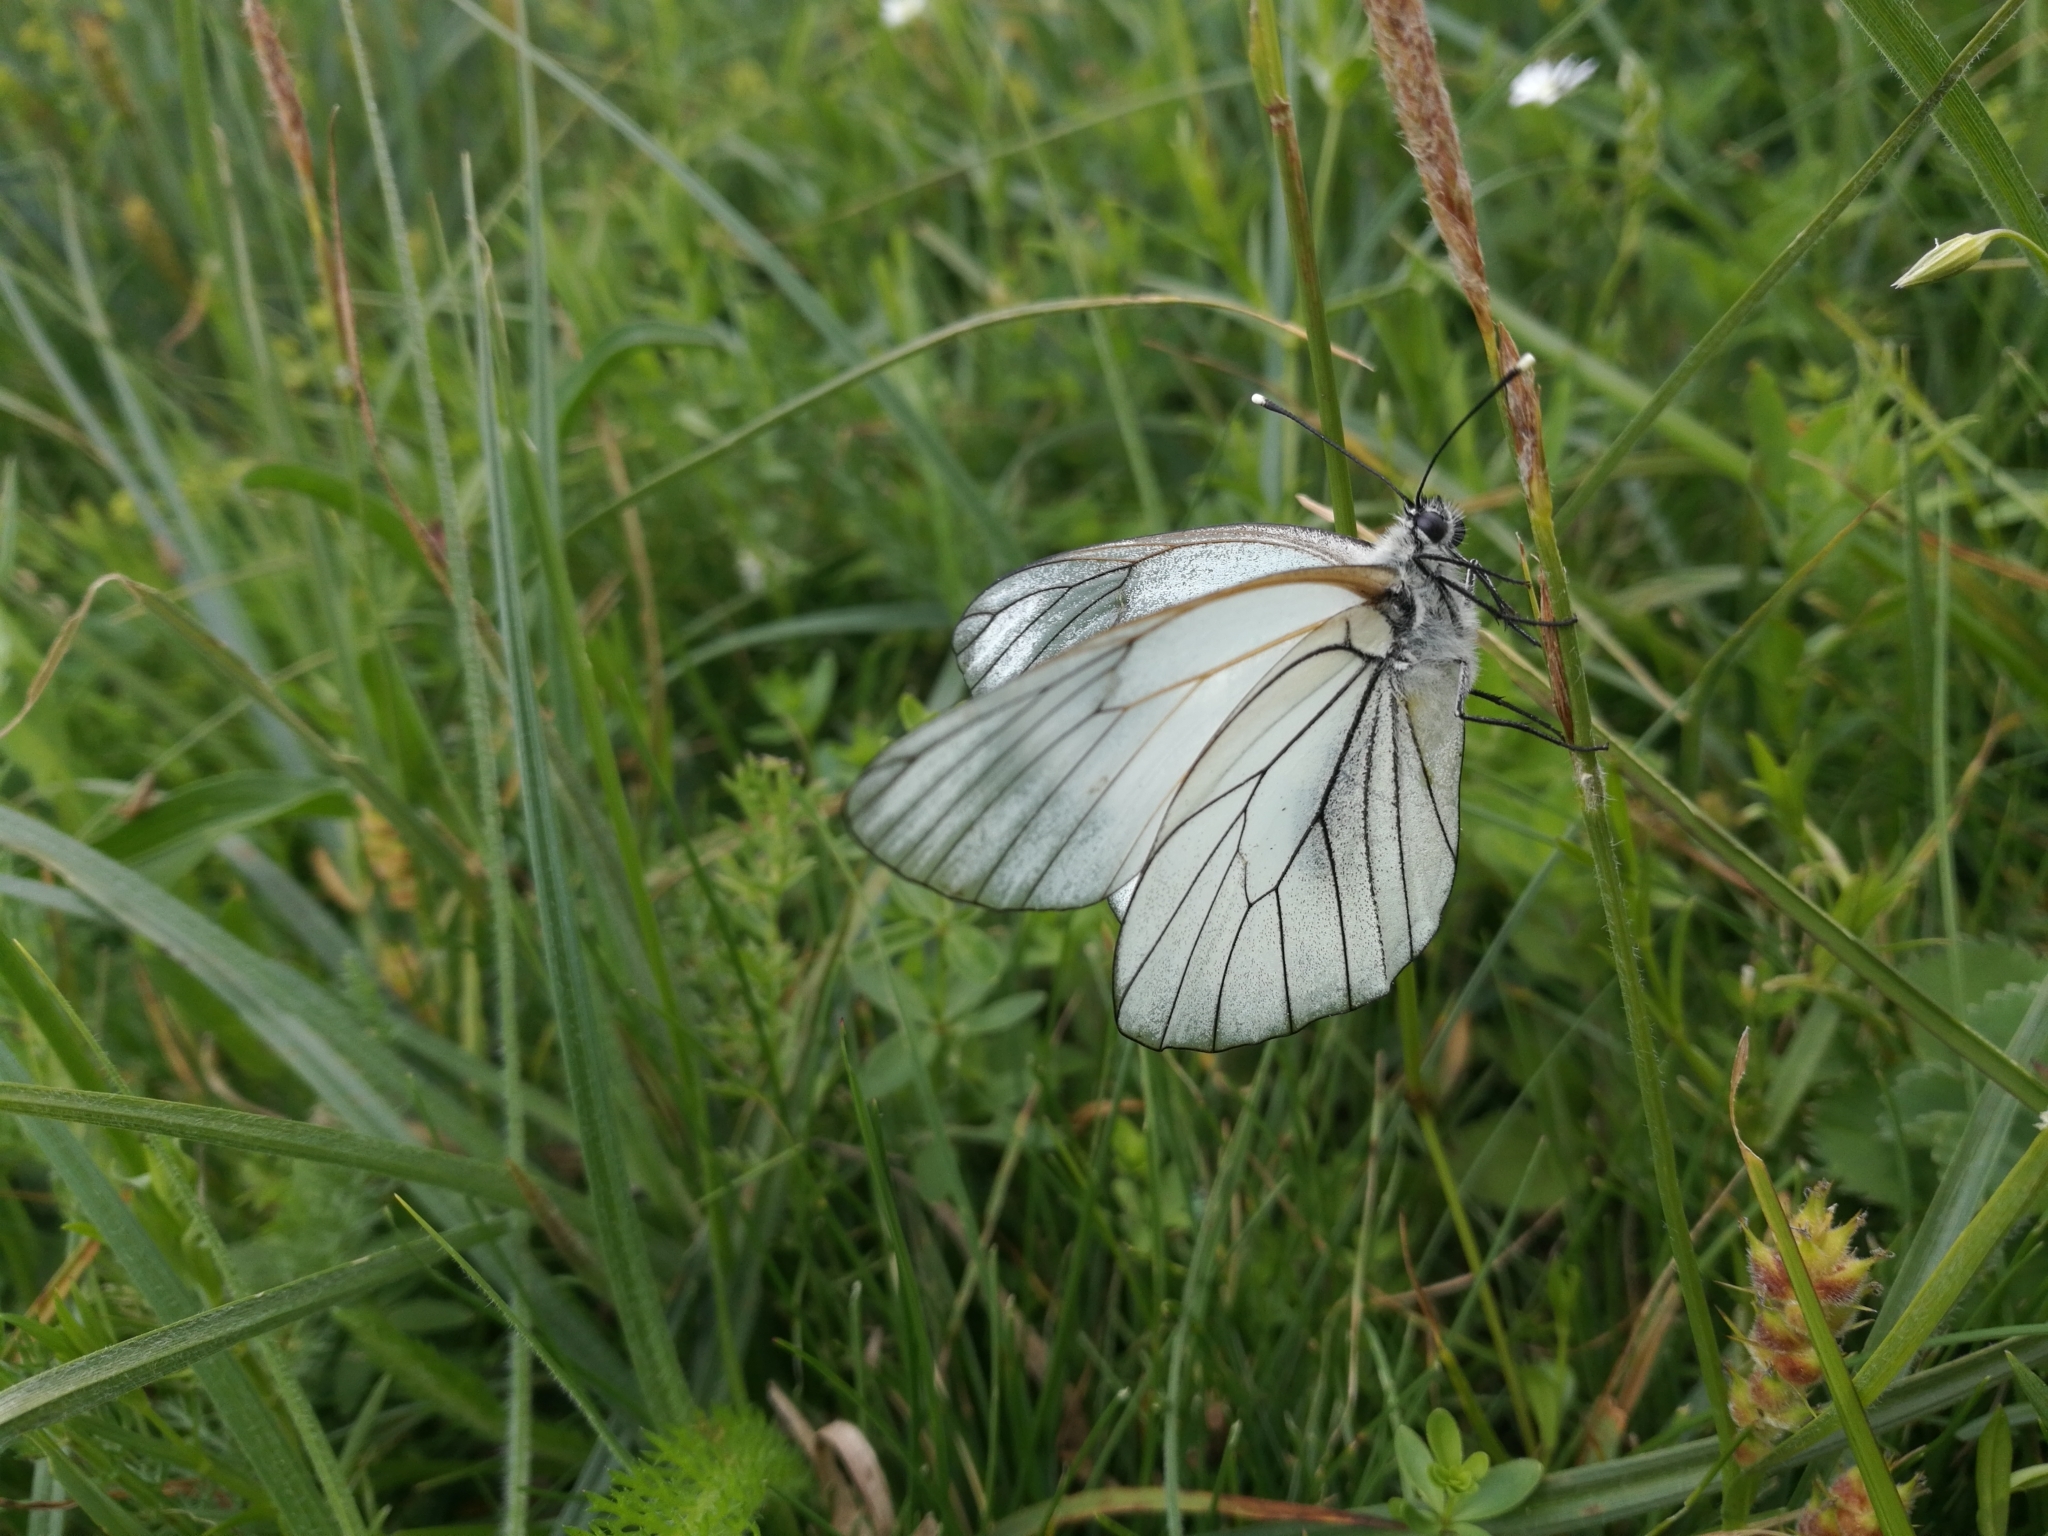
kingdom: Animalia
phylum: Arthropoda
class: Insecta
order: Lepidoptera
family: Pieridae
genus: Aporia
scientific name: Aporia crataegi
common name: Black-veined white
